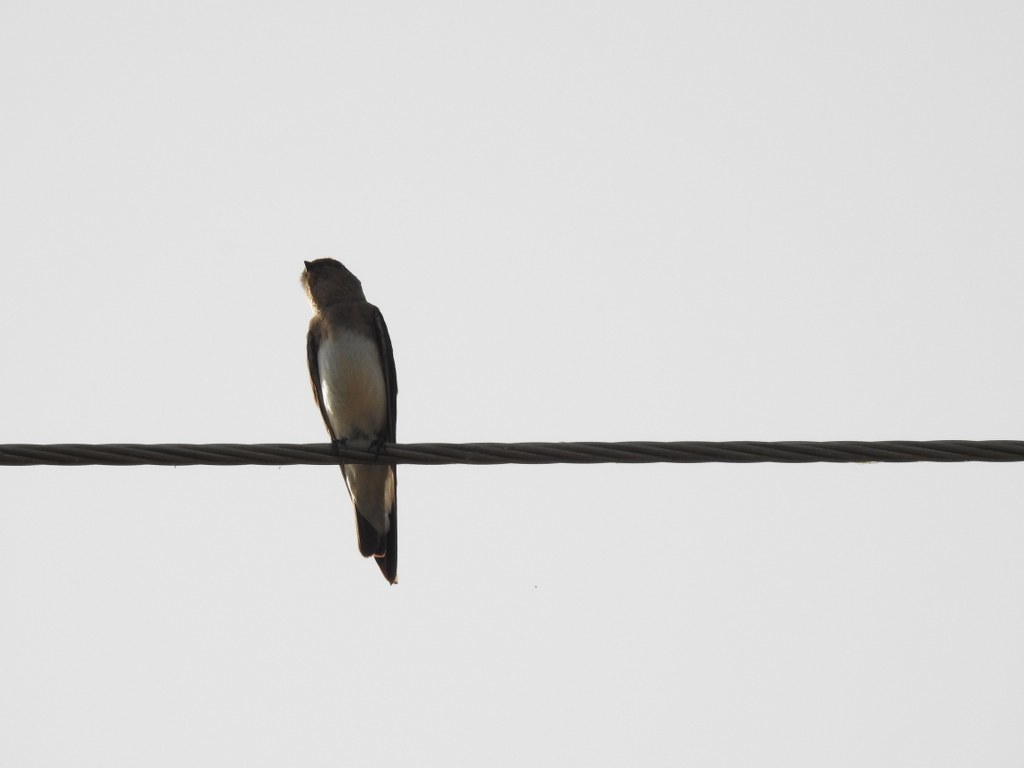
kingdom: Animalia
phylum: Chordata
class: Aves
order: Passeriformes
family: Hirundinidae
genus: Riparia
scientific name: Riparia chinensis
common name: Gray-throated martin
